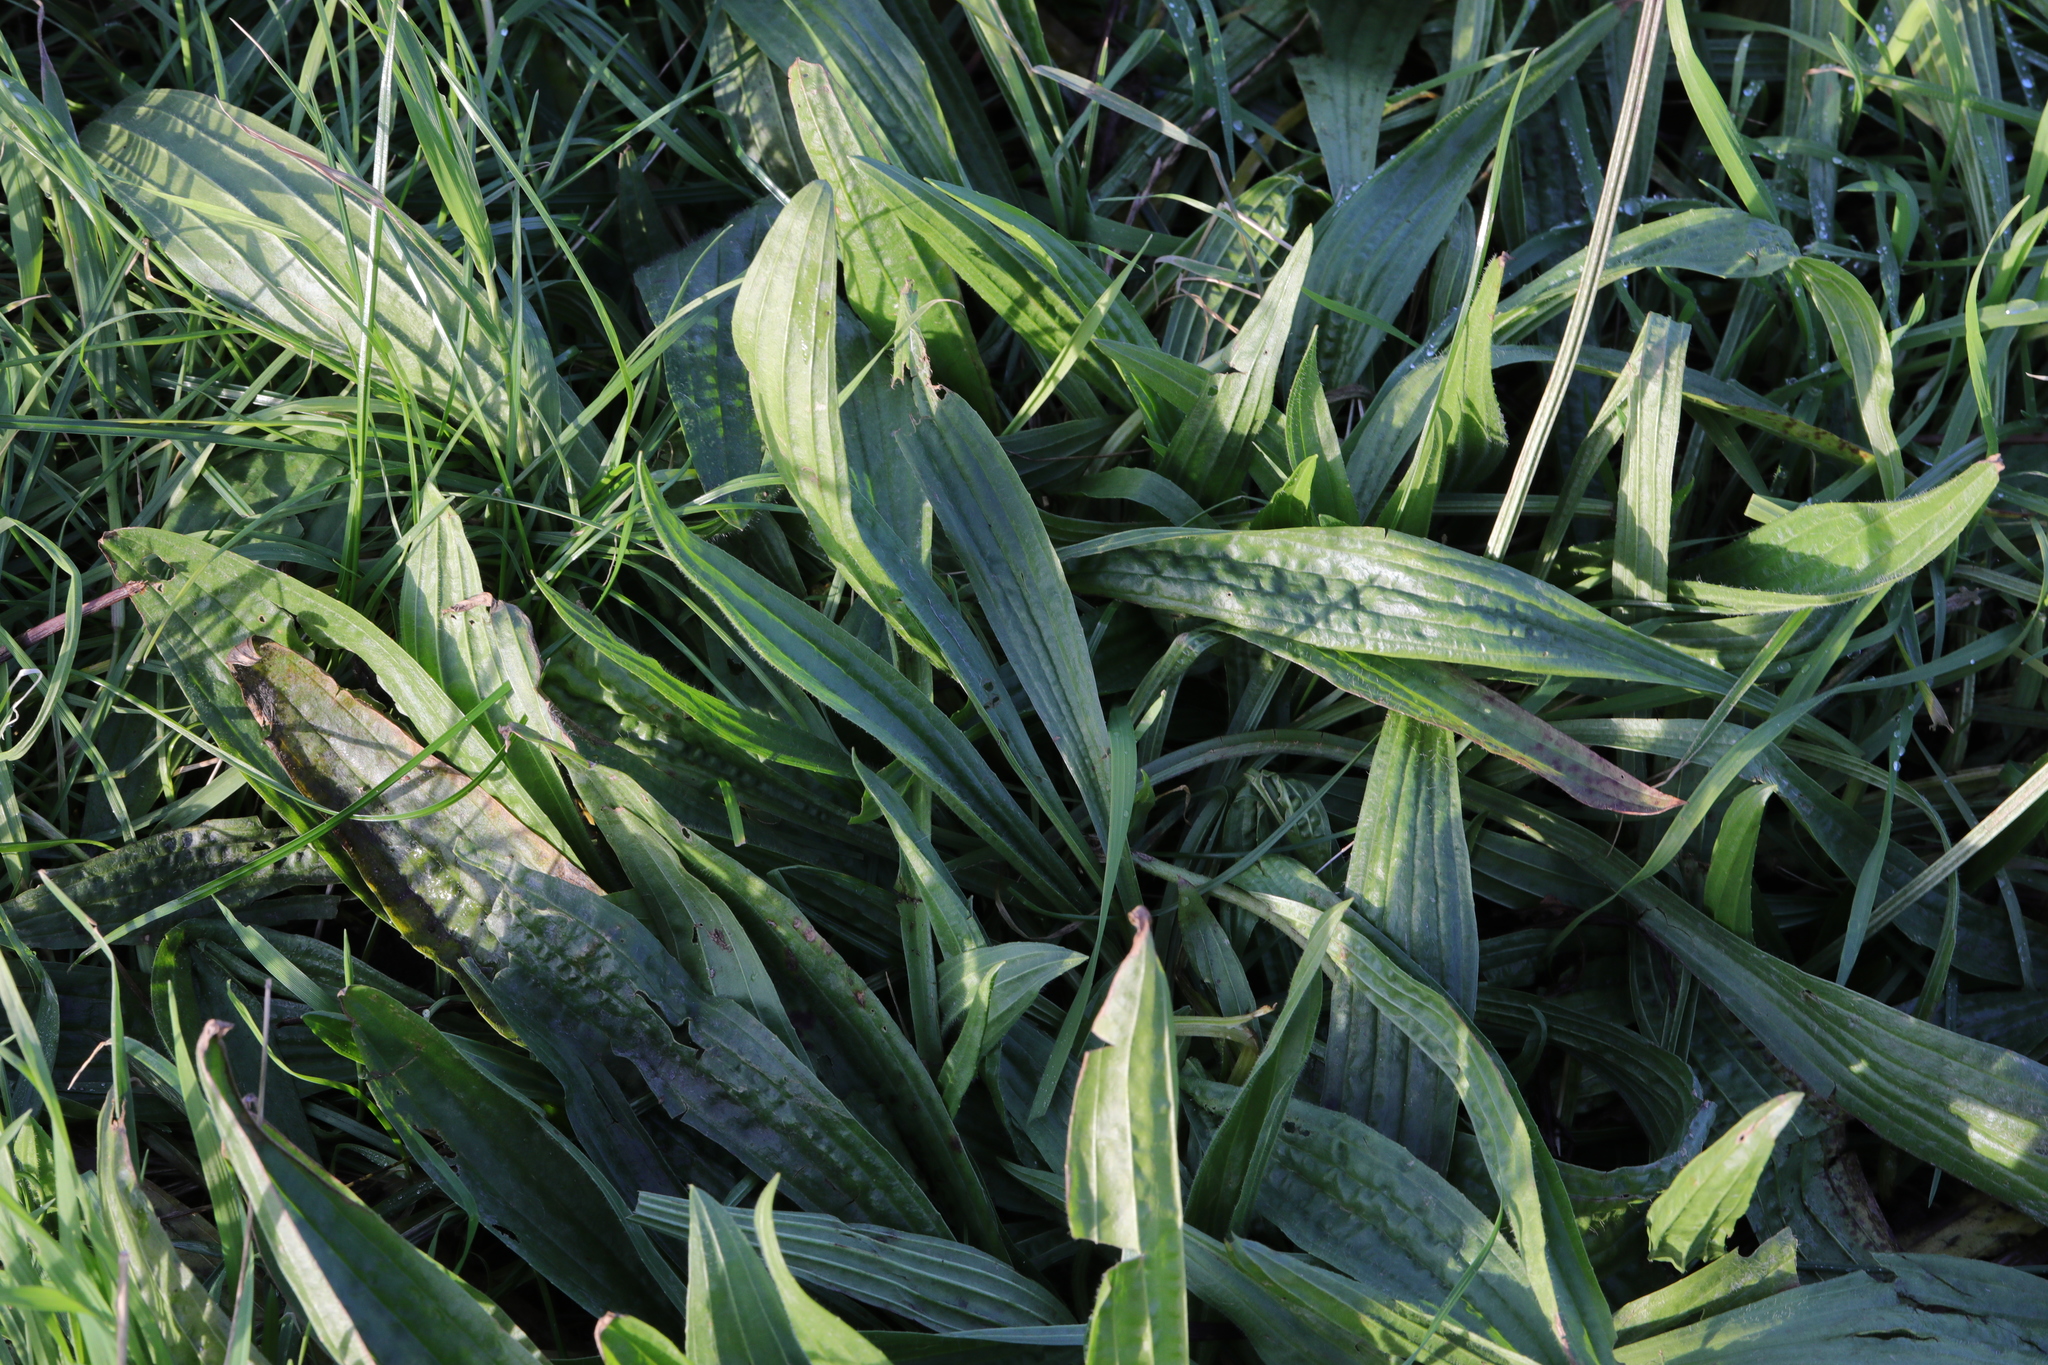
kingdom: Plantae
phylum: Tracheophyta
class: Magnoliopsida
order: Lamiales
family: Plantaginaceae
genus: Plantago
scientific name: Plantago lanceolata
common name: Ribwort plantain
